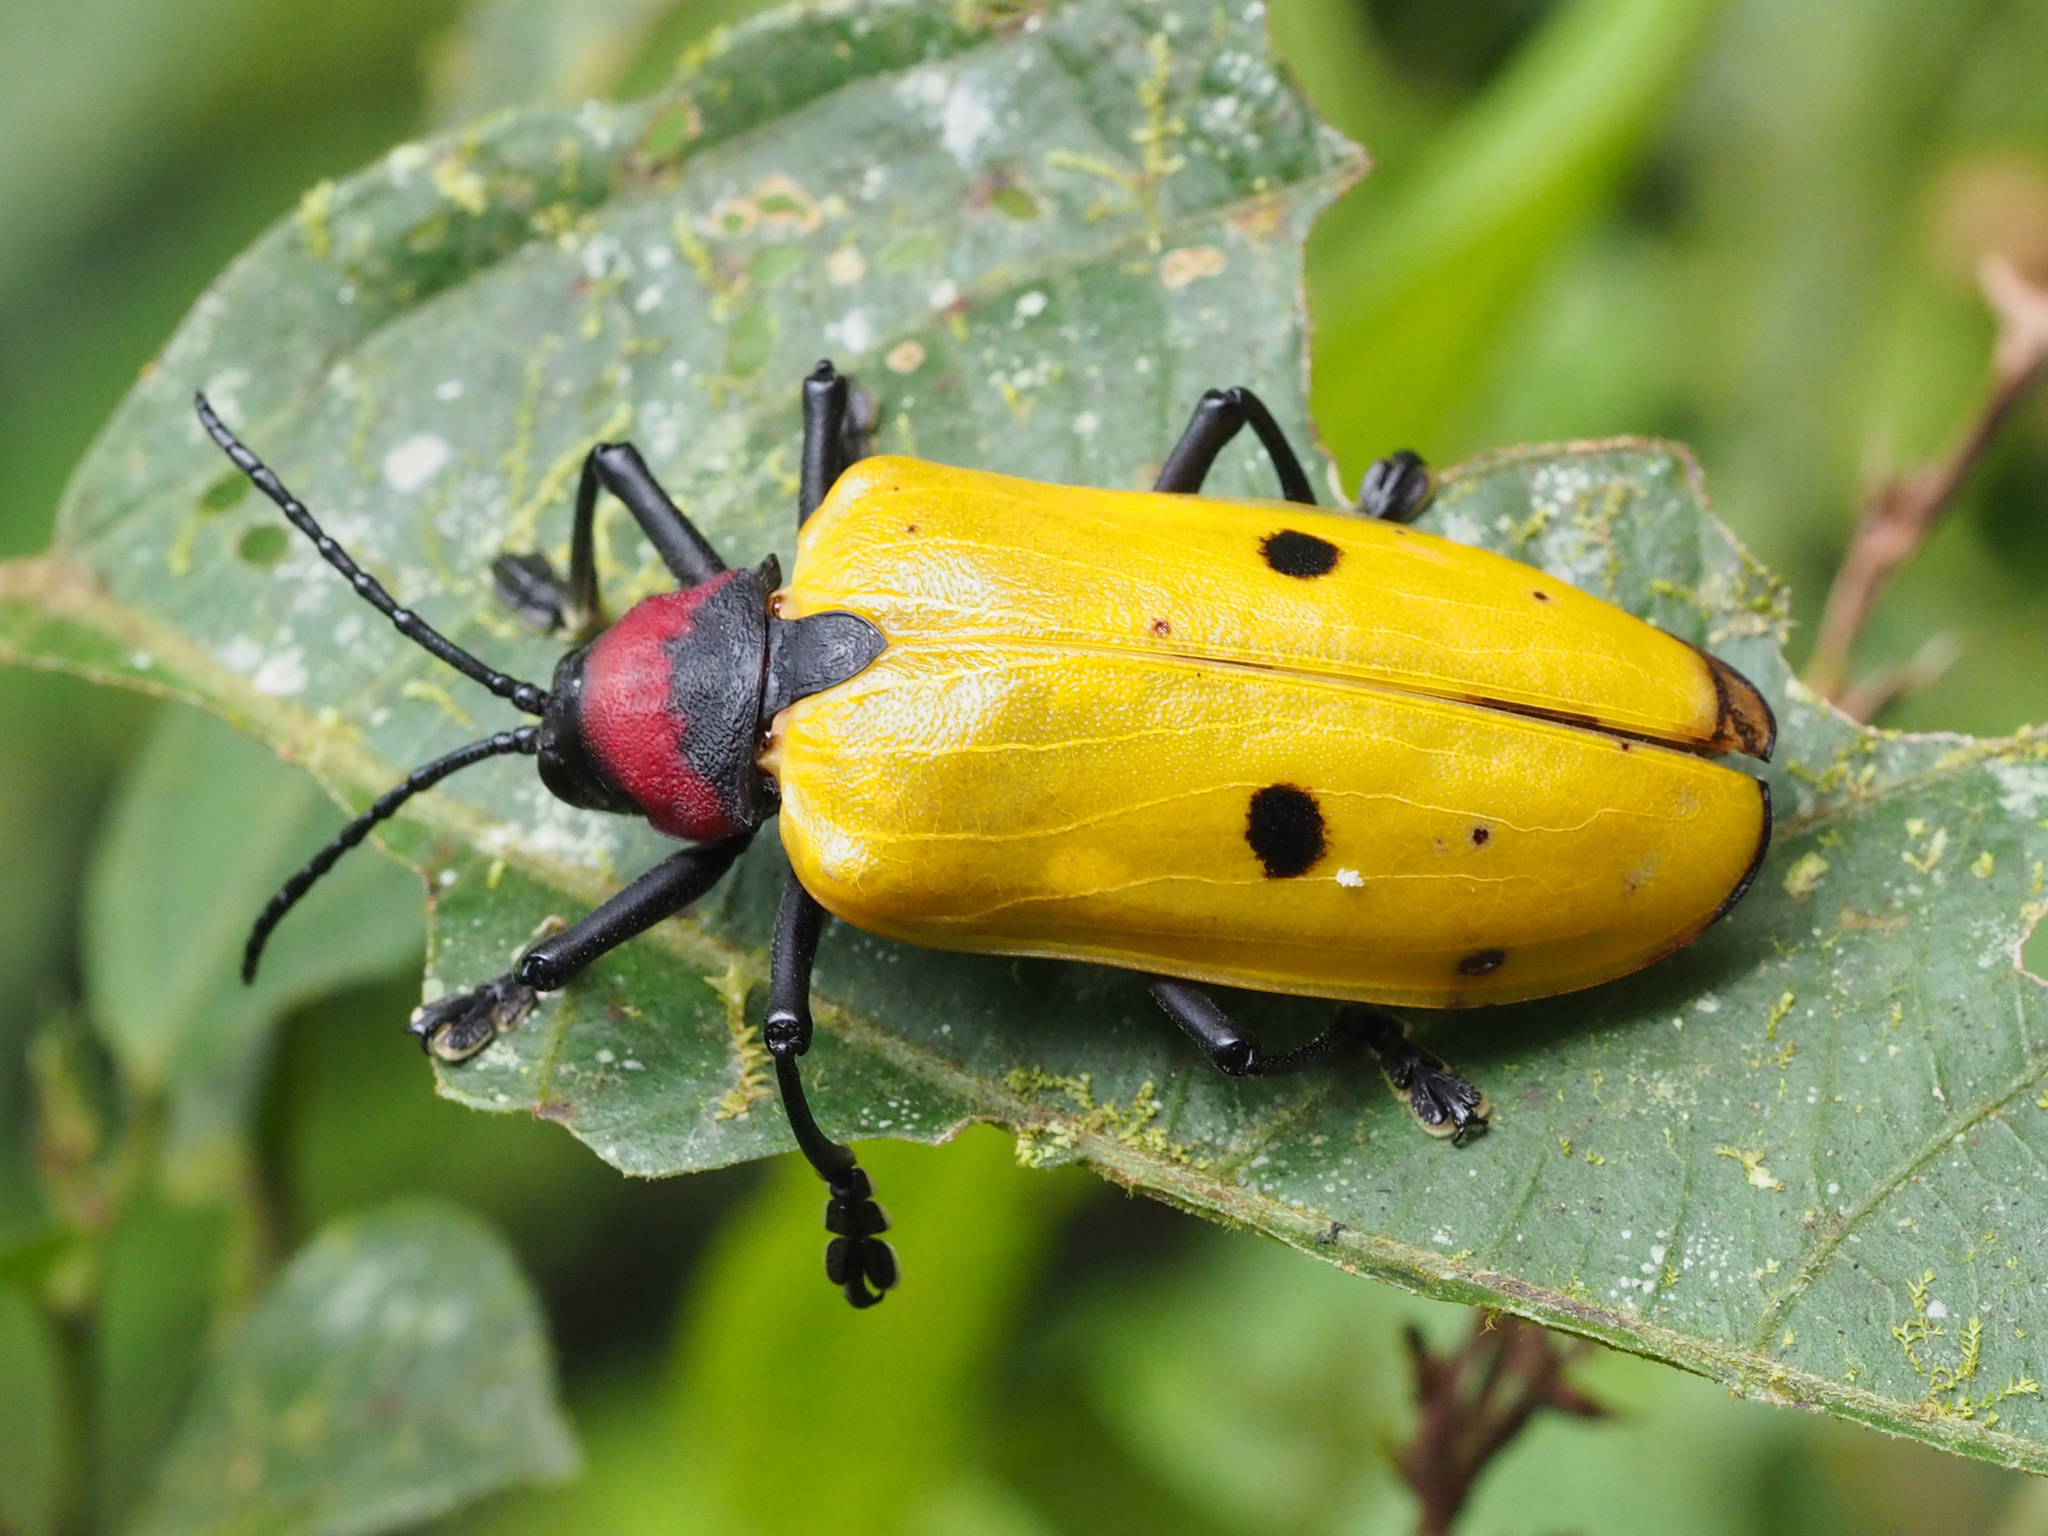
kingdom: Animalia
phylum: Arthropoda
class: Insecta
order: Coleoptera
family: Chrysomelidae
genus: Alurnus
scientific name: Alurnus orbignyi
